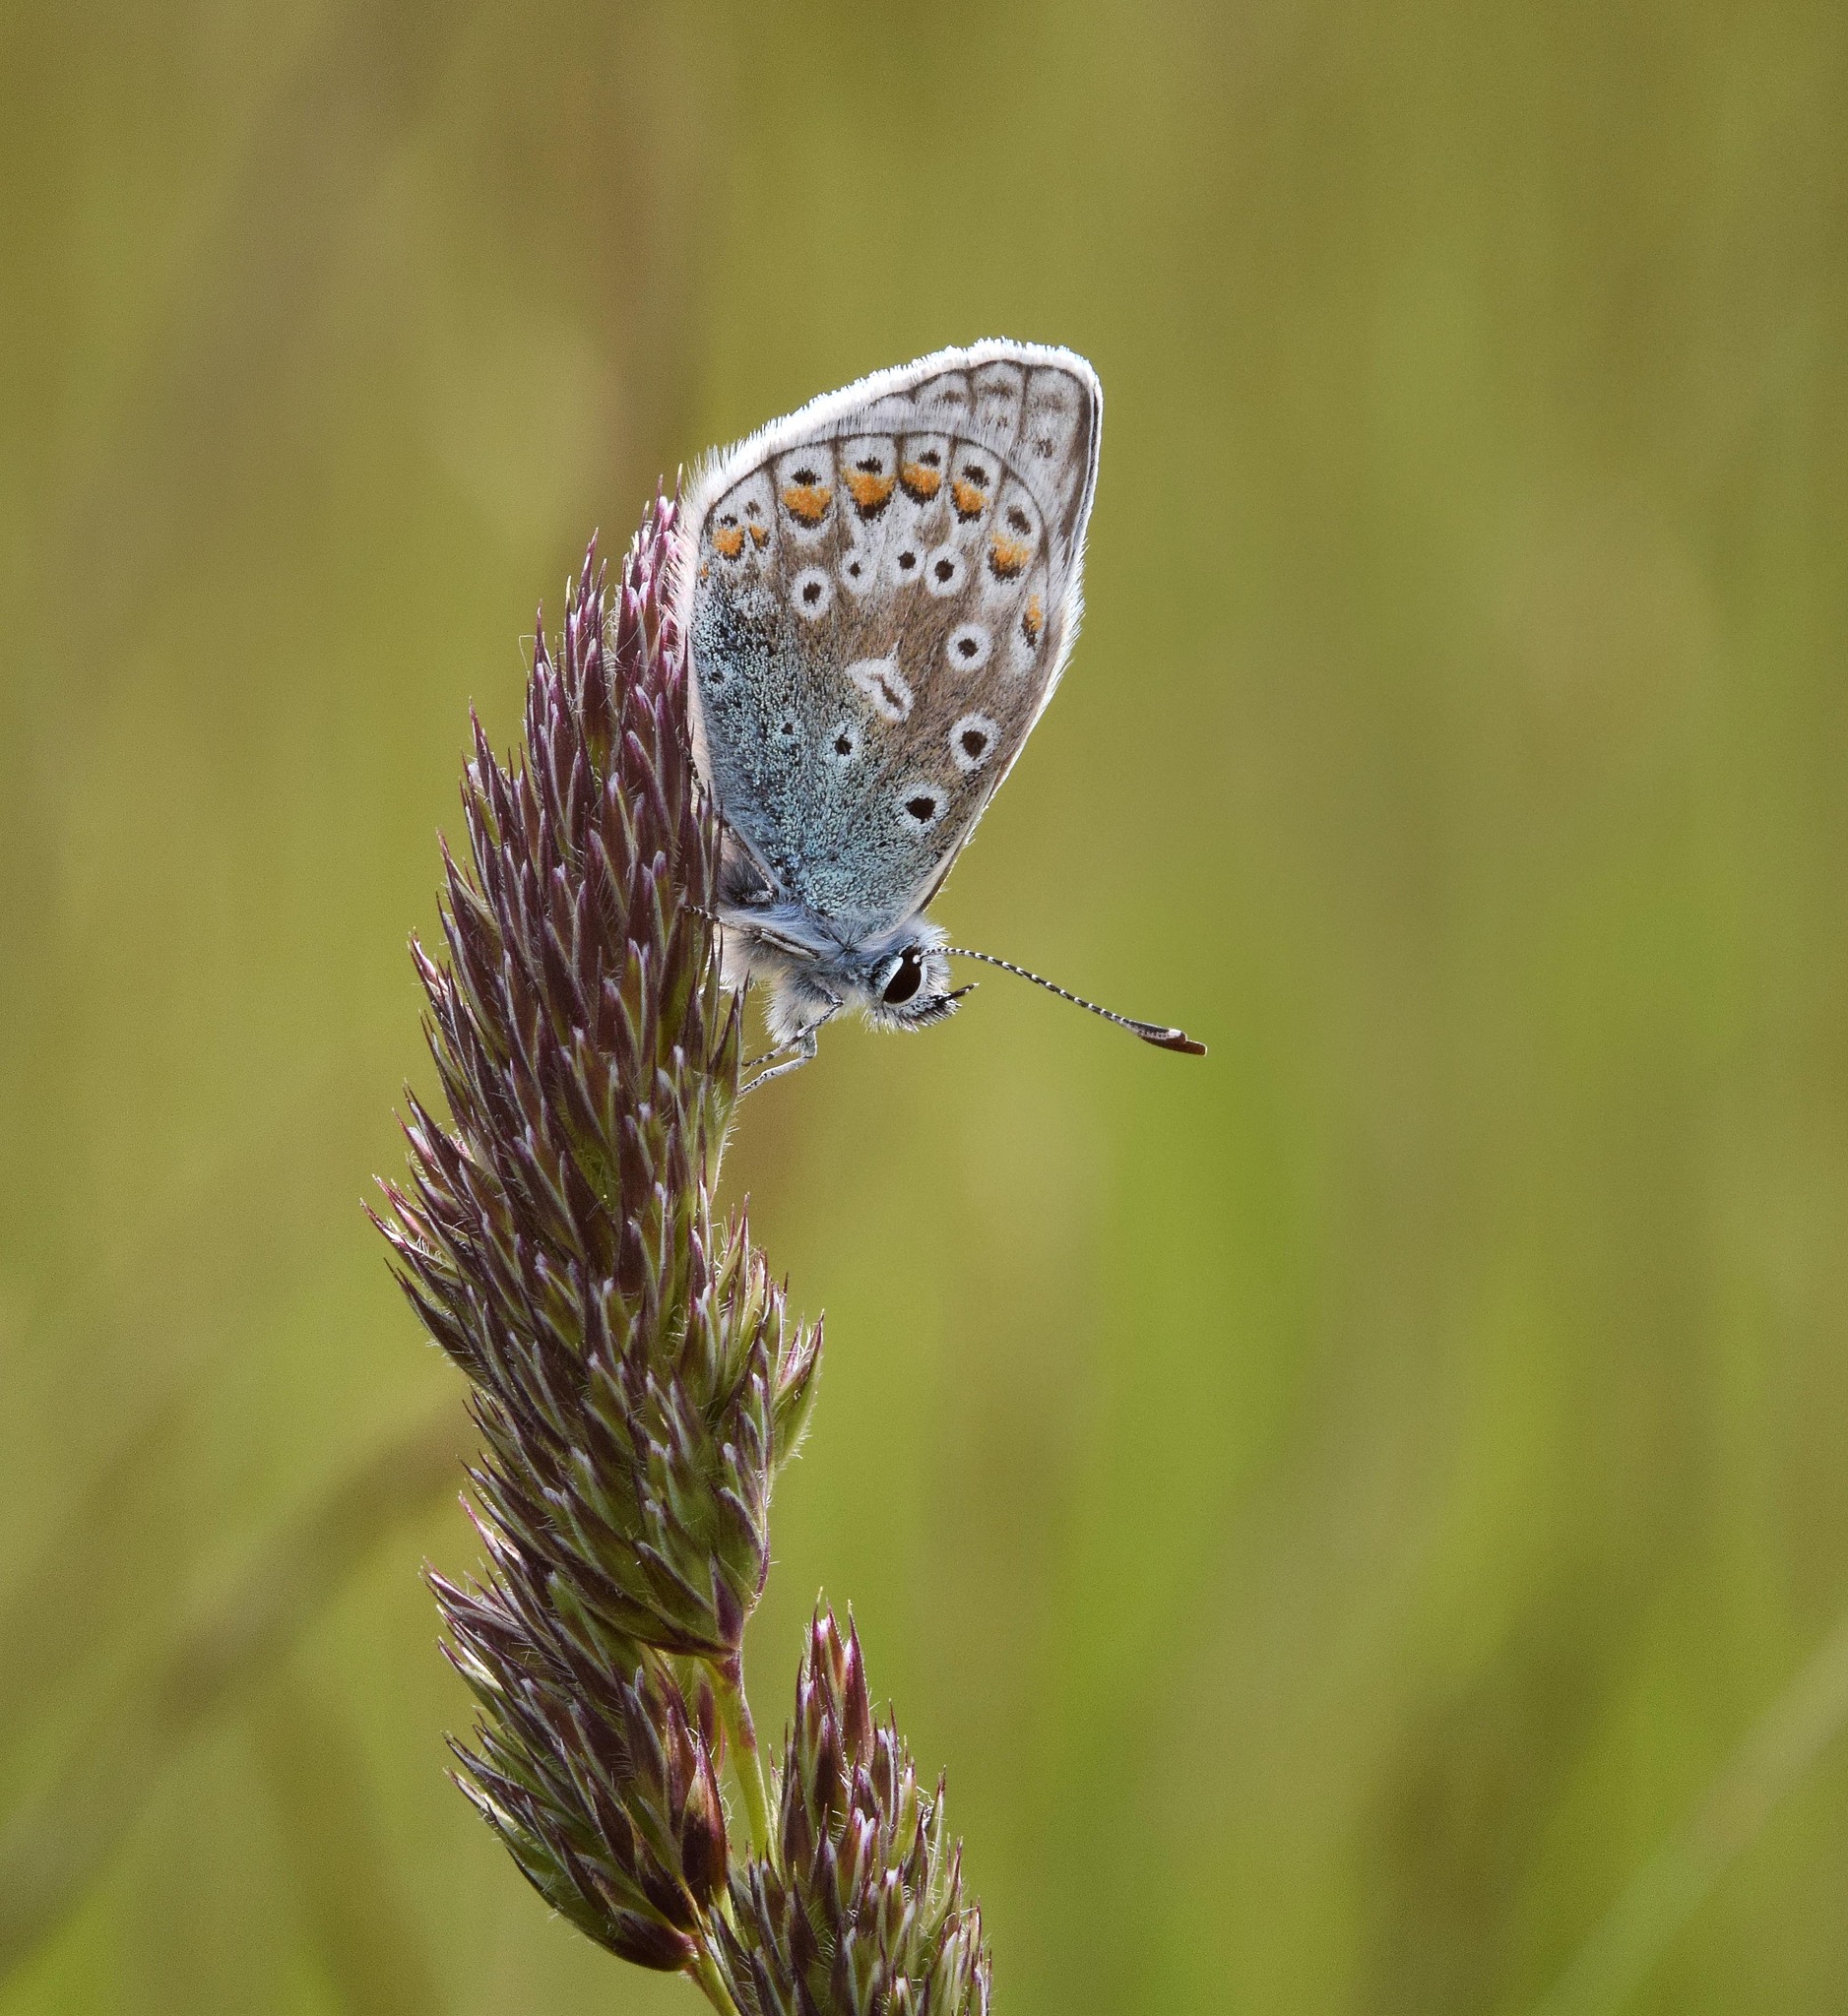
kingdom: Animalia
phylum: Arthropoda
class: Insecta
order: Lepidoptera
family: Lycaenidae
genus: Polyommatus
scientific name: Polyommatus icarus
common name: Common blue
